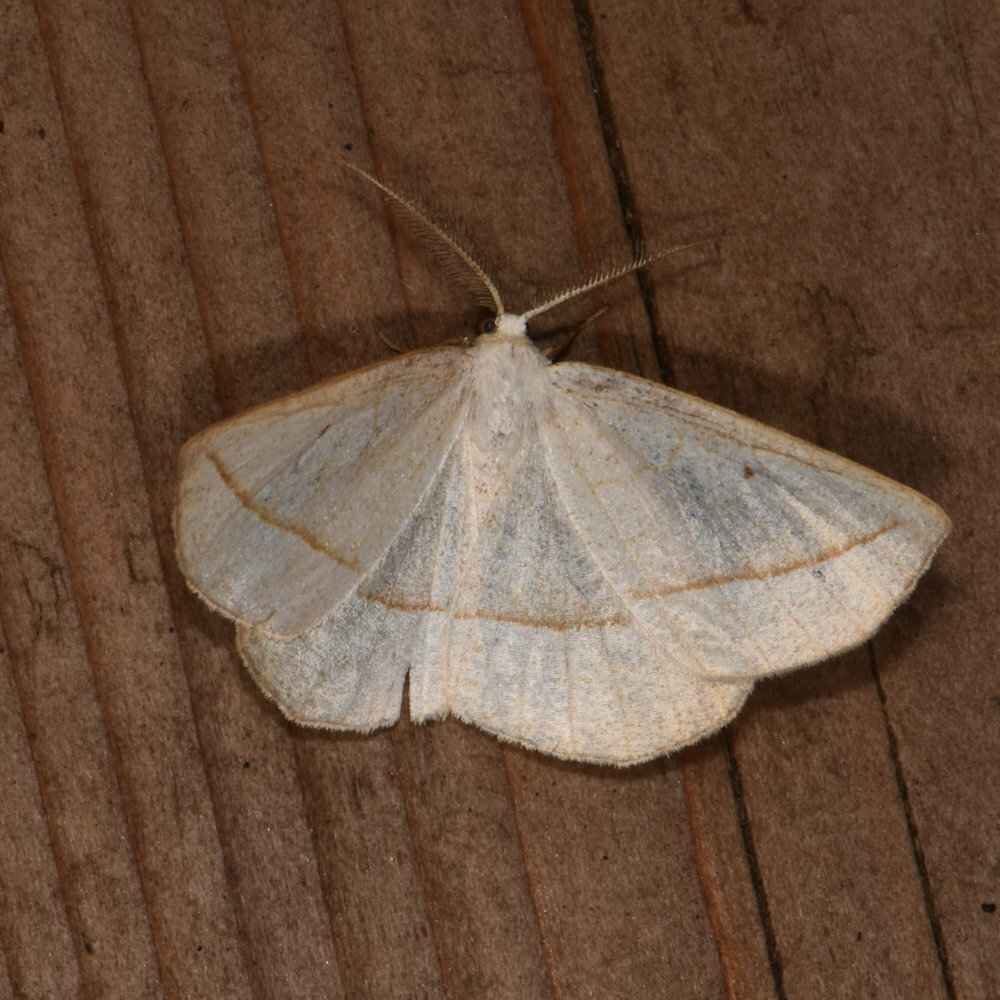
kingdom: Animalia
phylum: Arthropoda
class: Insecta
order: Lepidoptera
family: Geometridae
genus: Eusarca
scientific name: Eusarca confusaria
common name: Confused eusarca
